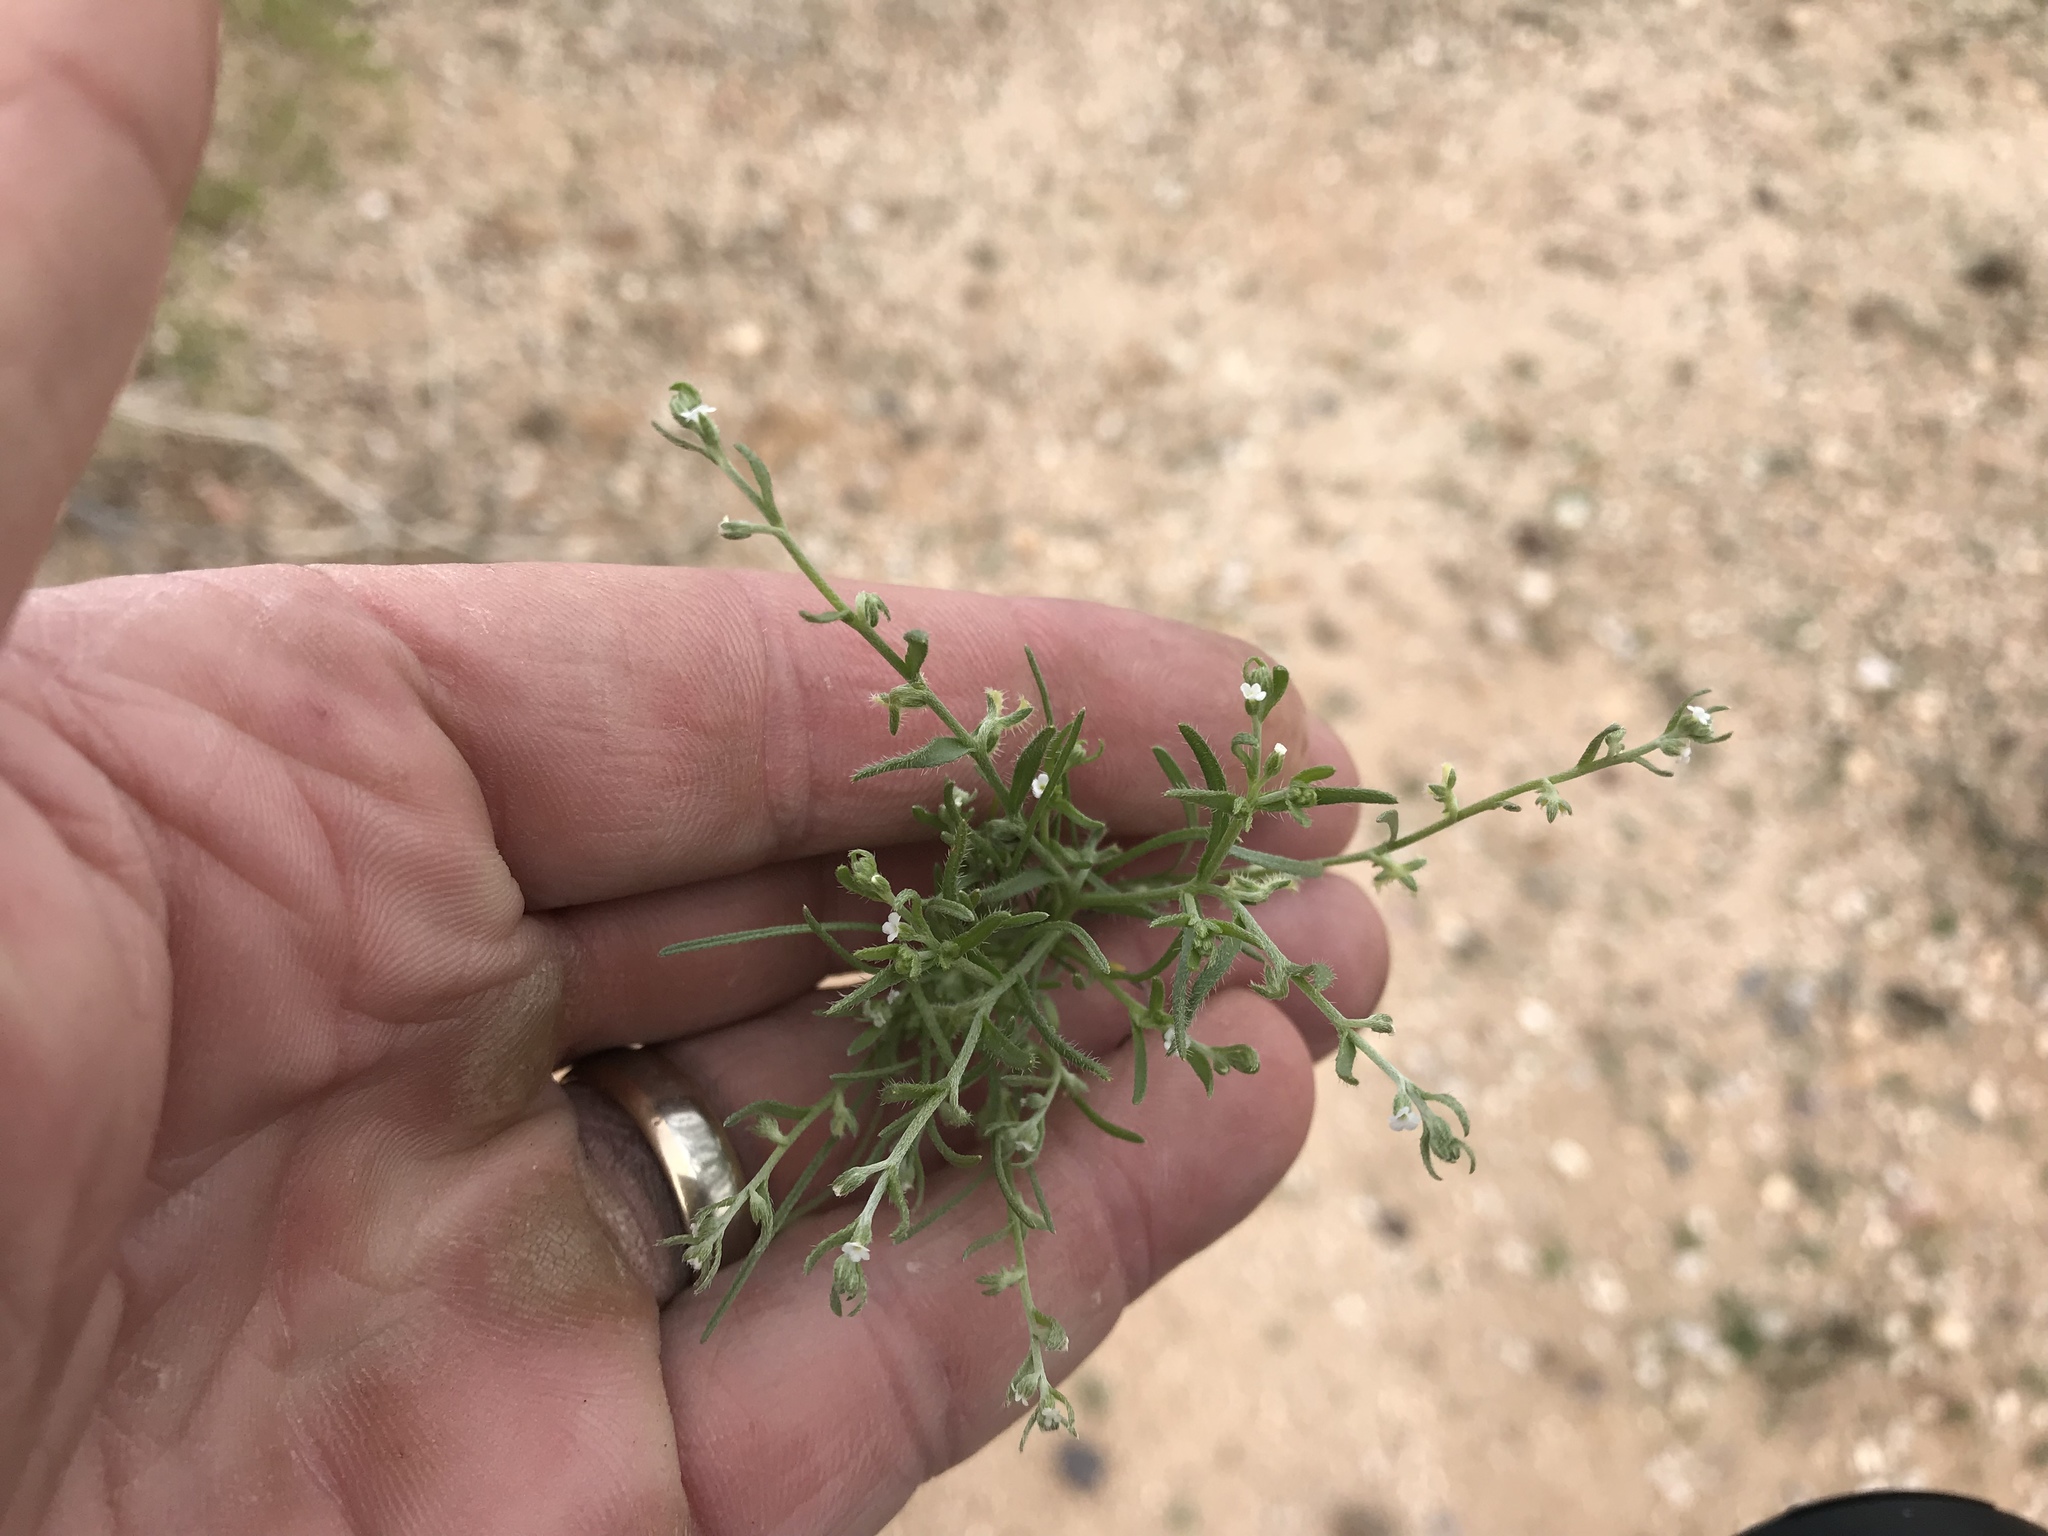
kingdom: Plantae
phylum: Tracheophyta
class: Magnoliopsida
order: Boraginales
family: Boraginaceae
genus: Pectocarya
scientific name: Pectocarya heterocarpa
